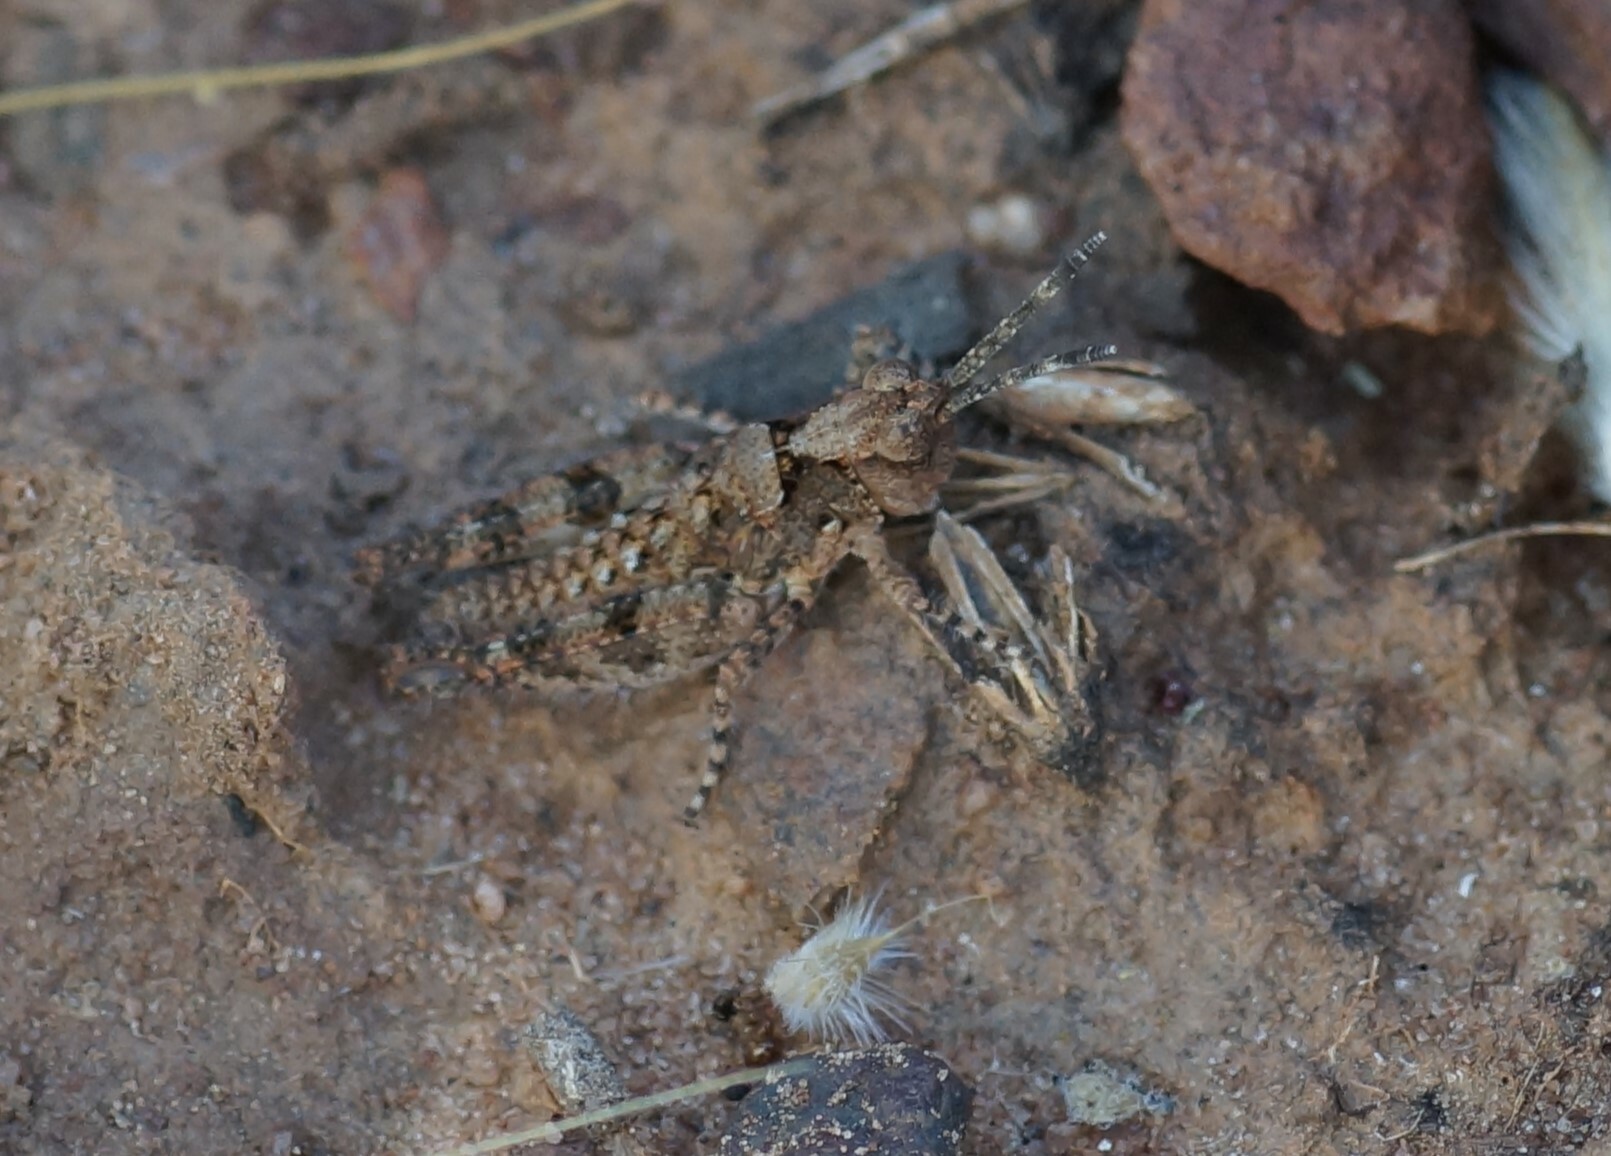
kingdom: Animalia
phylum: Arthropoda
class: Insecta
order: Orthoptera
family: Acrididae
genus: Pycnostictus
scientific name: Pycnostictus seriatus
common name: Common bandwing
